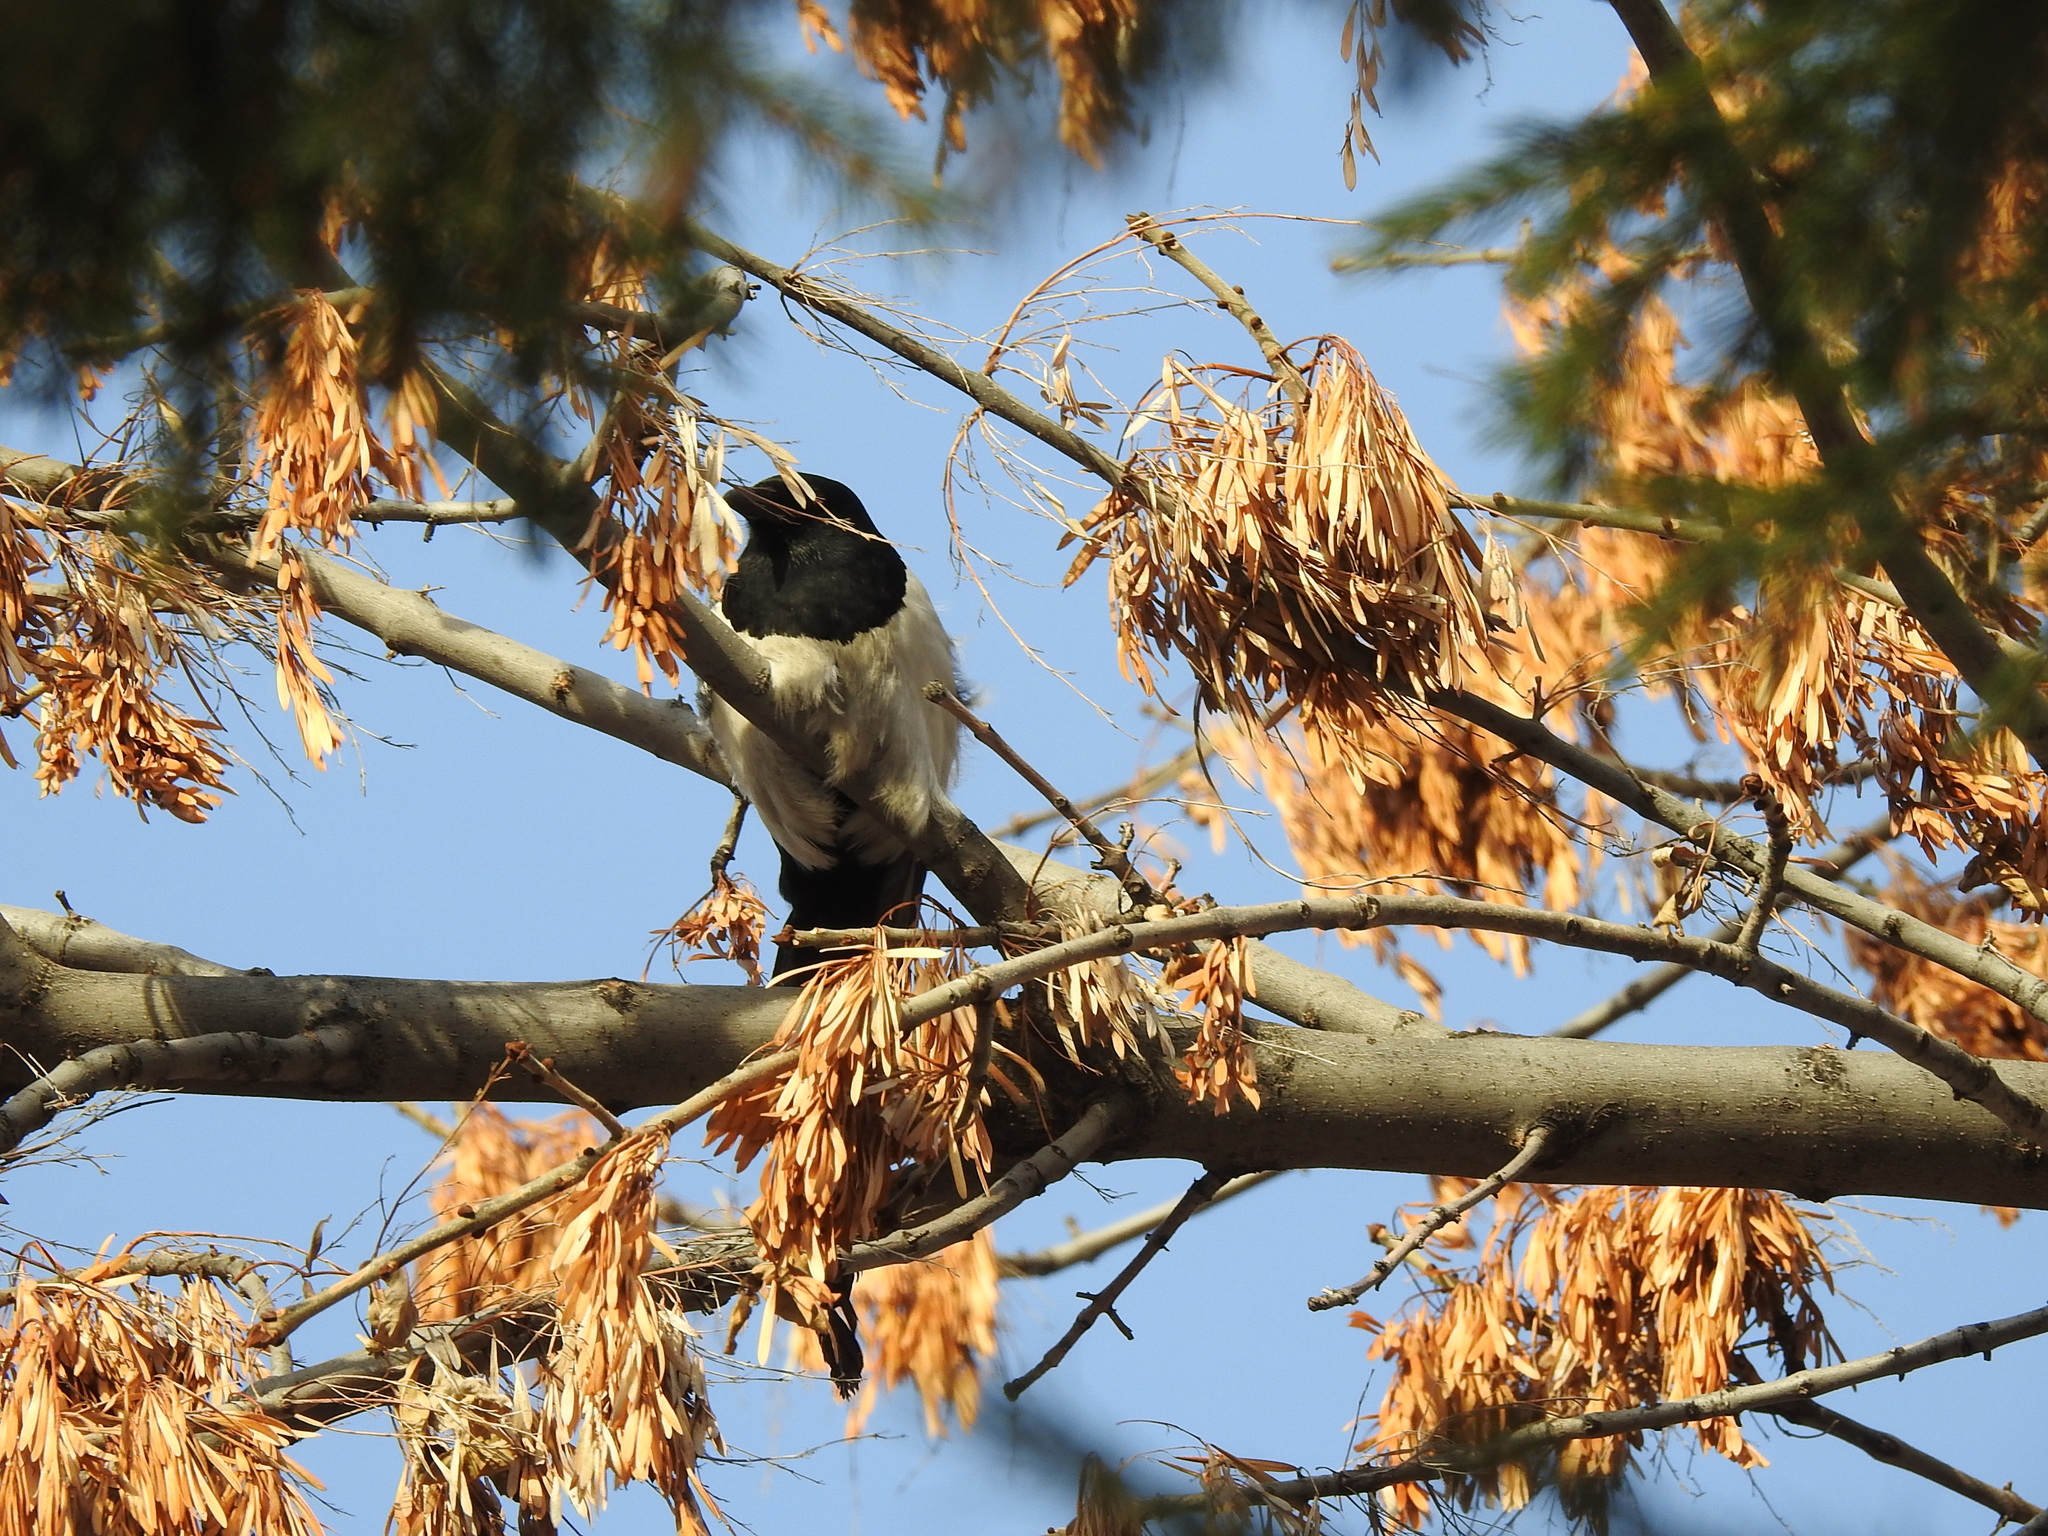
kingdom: Animalia
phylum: Chordata
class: Aves
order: Passeriformes
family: Corvidae
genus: Pica
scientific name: Pica pica
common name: Eurasian magpie
